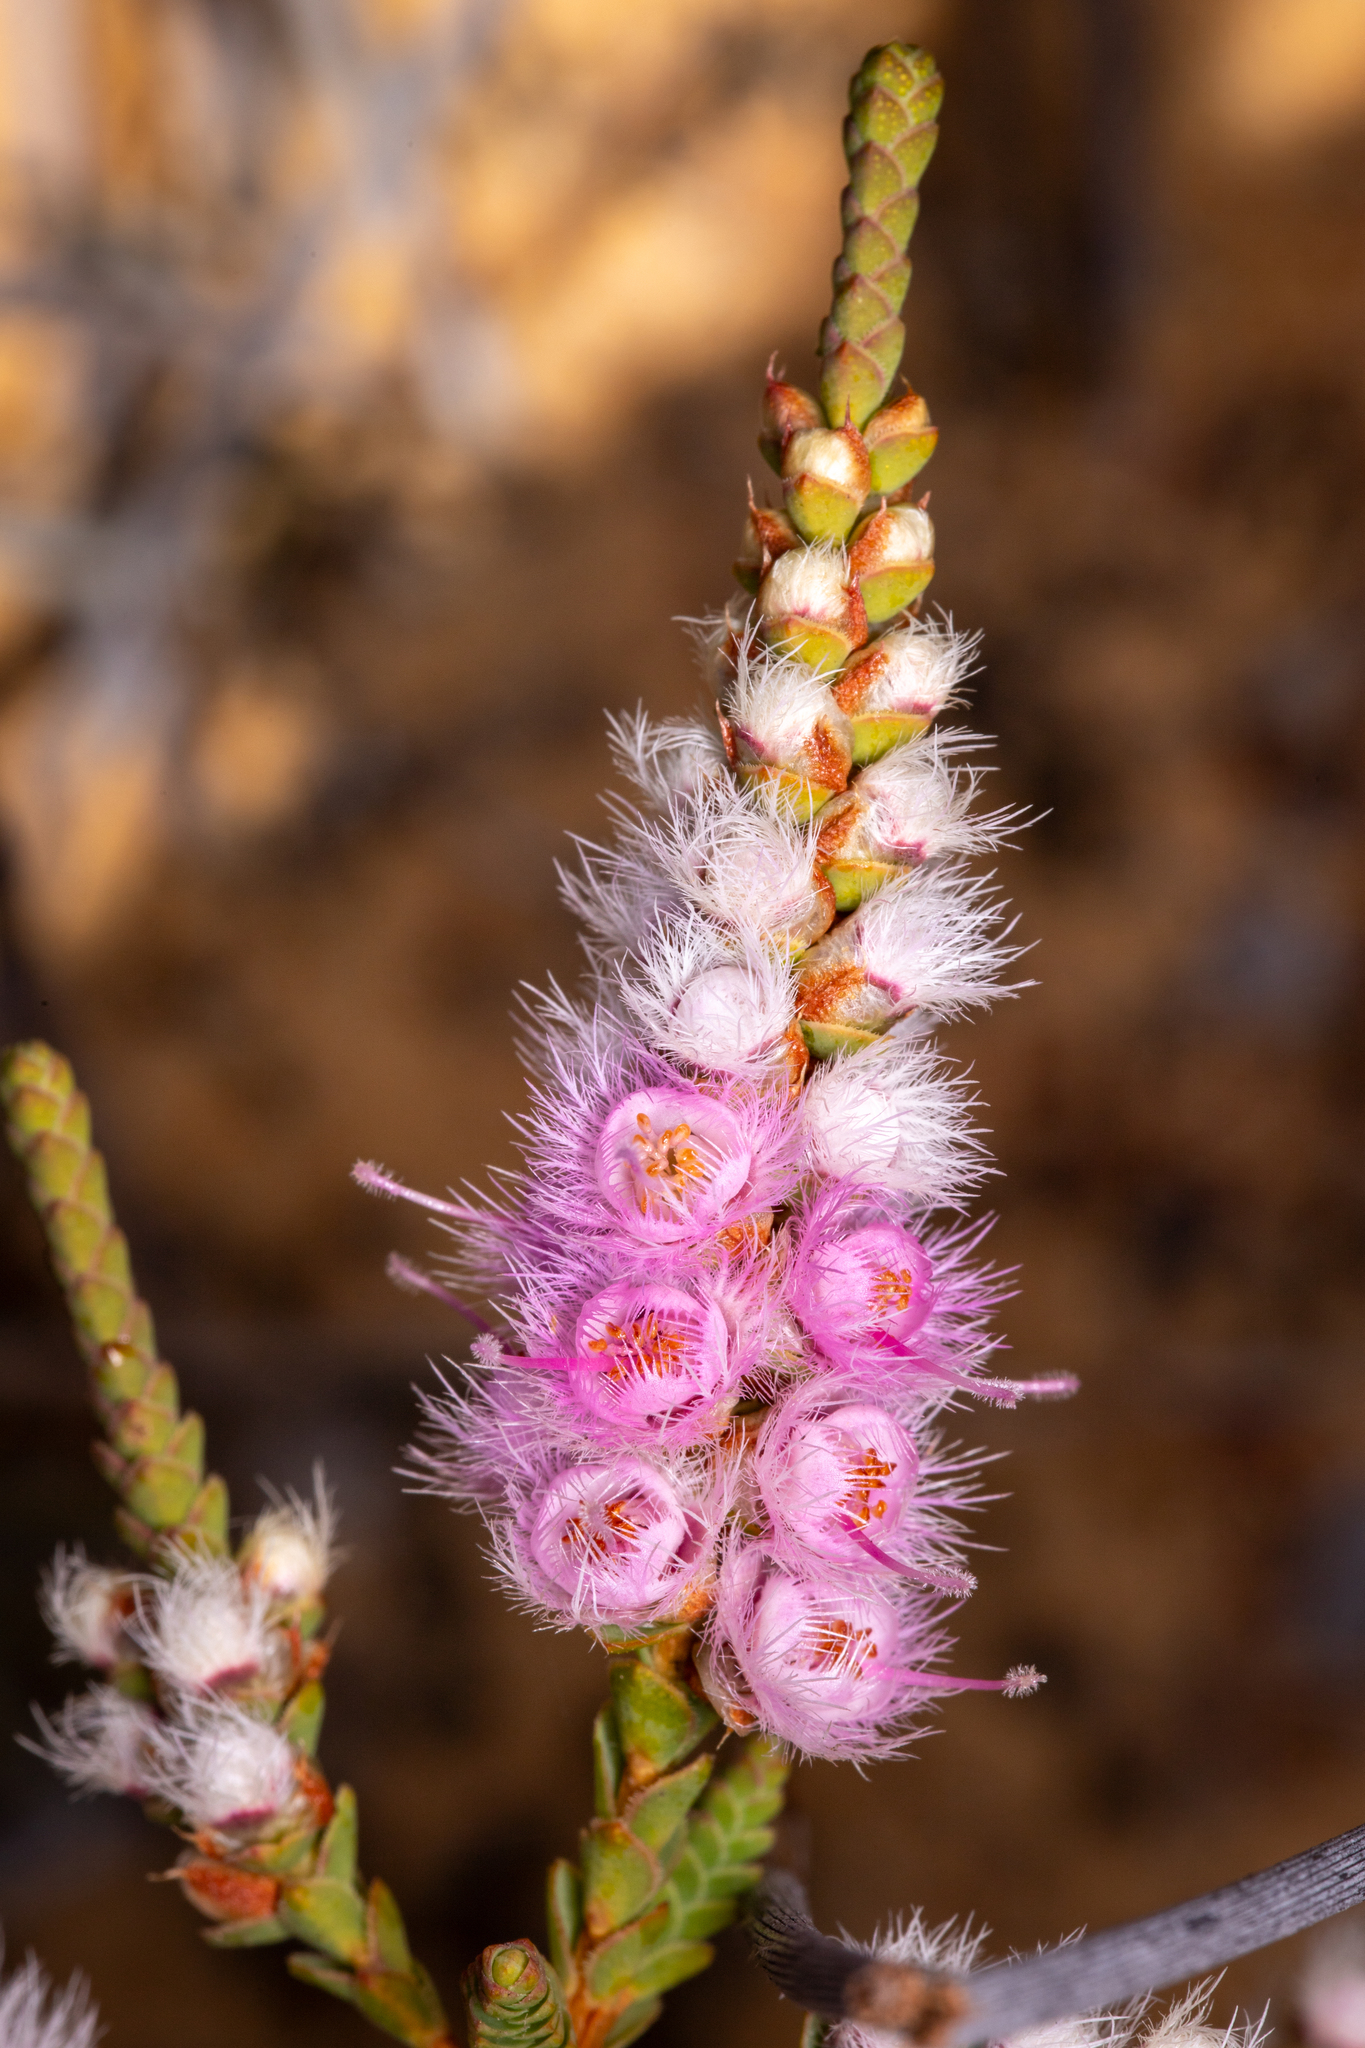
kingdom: Plantae
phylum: Tracheophyta
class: Magnoliopsida
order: Myrtales
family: Myrtaceae
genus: Verticordia
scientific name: Verticordia spicata
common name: Spike feather-flower
